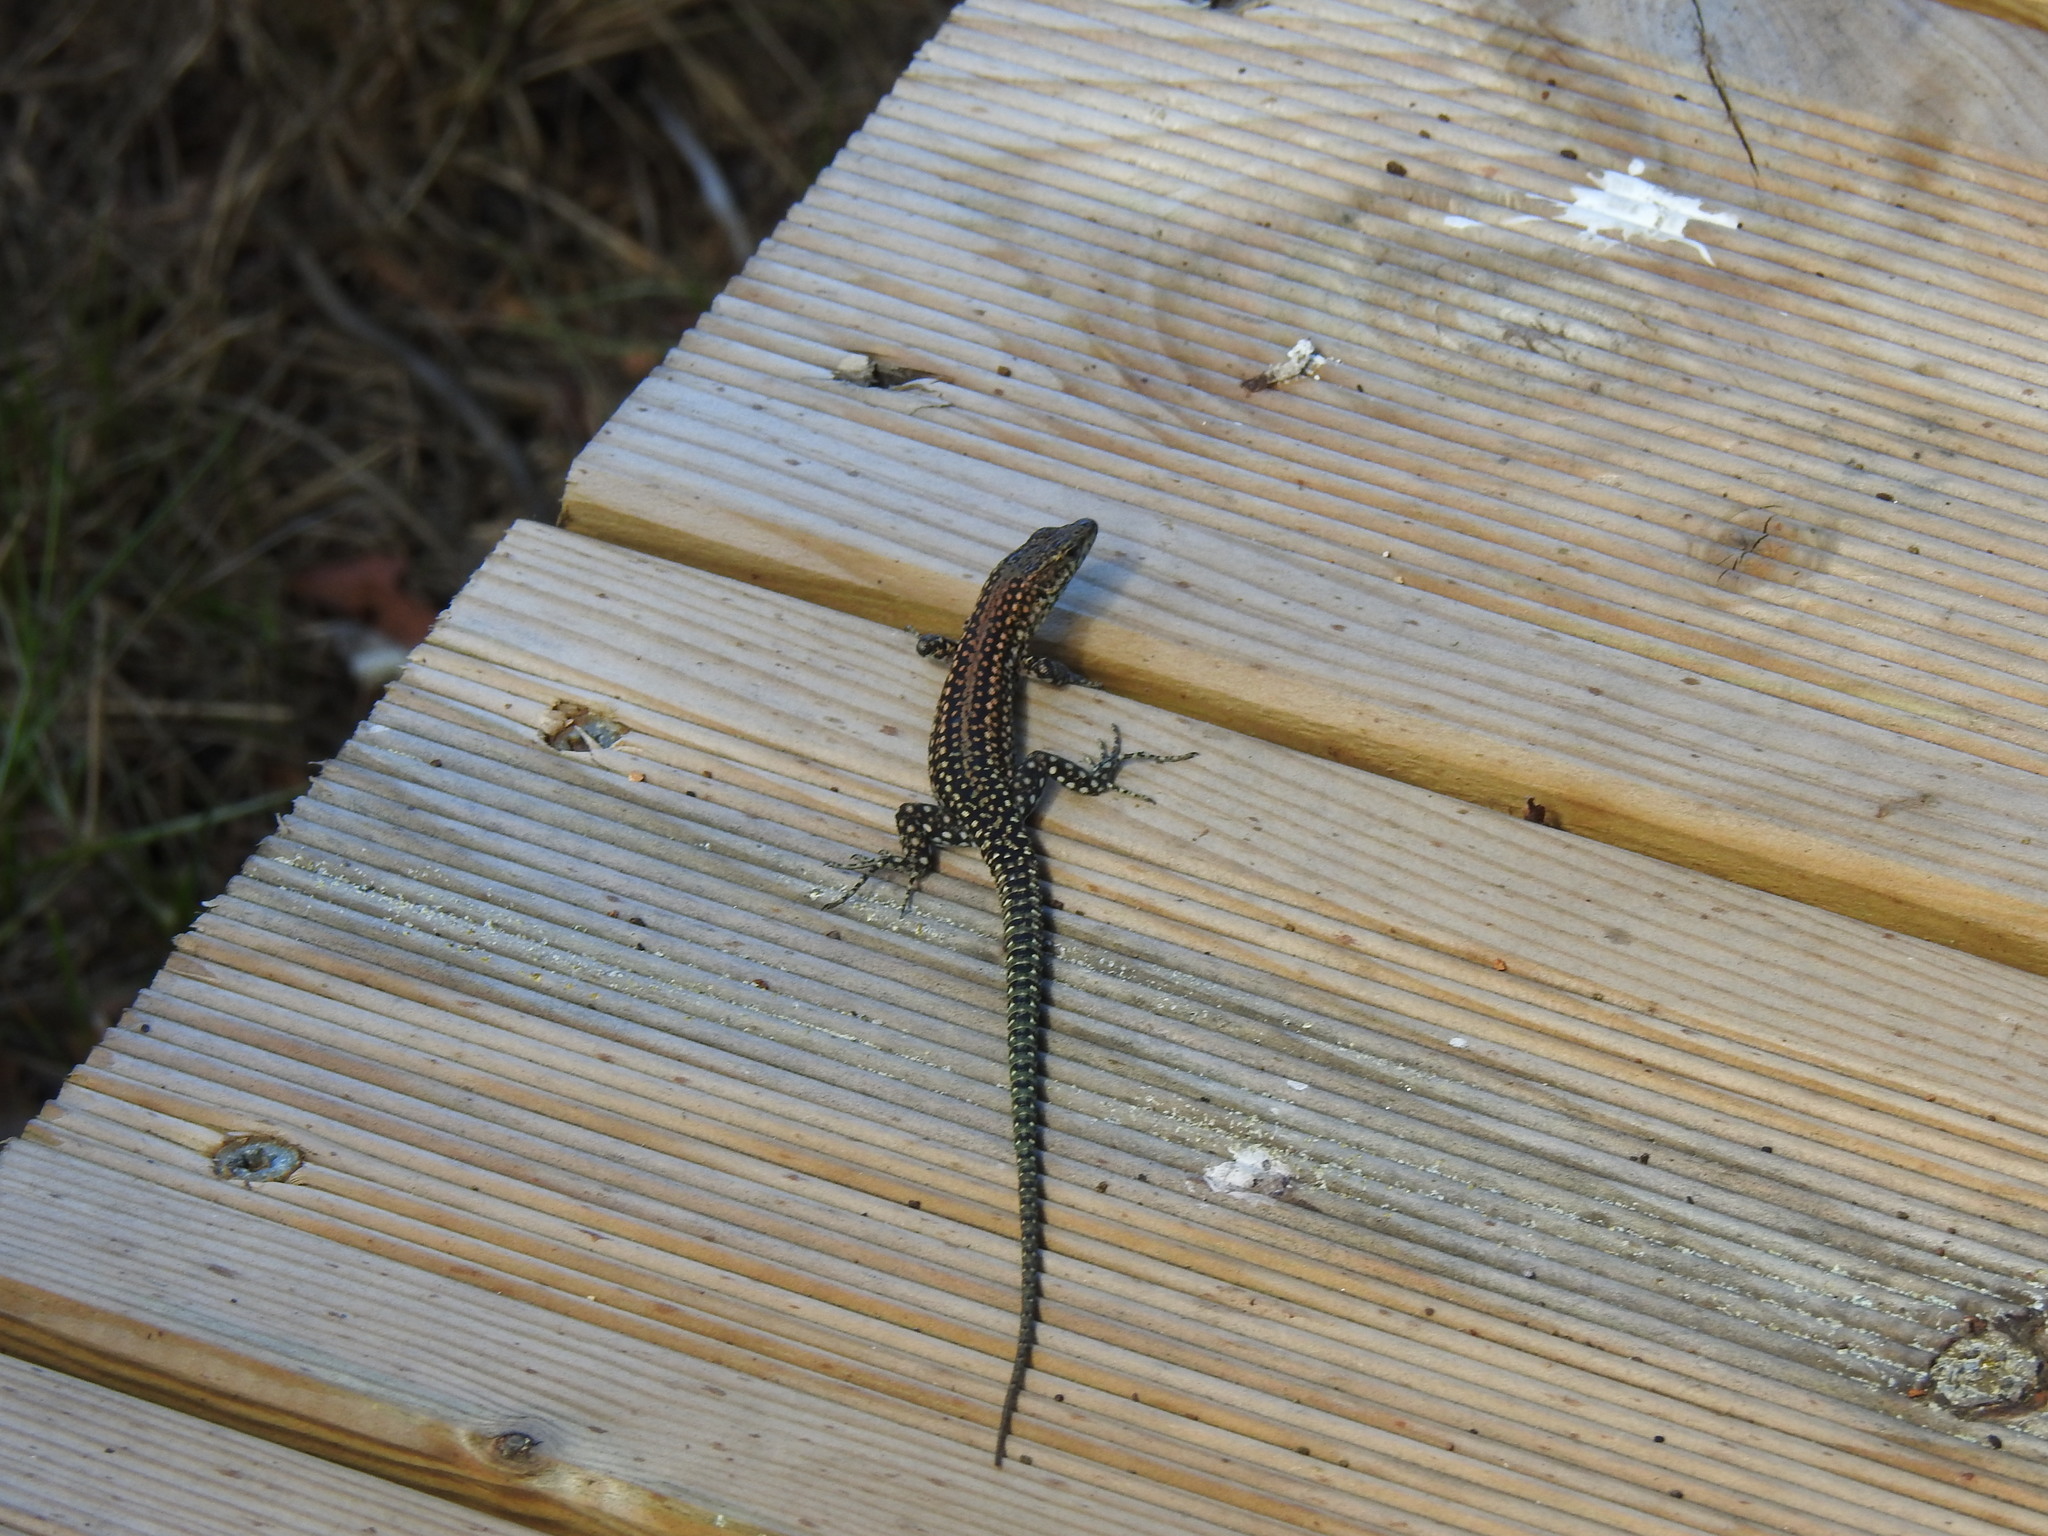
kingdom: Animalia
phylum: Chordata
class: Squamata
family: Lacertidae
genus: Podarcis
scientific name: Podarcis
